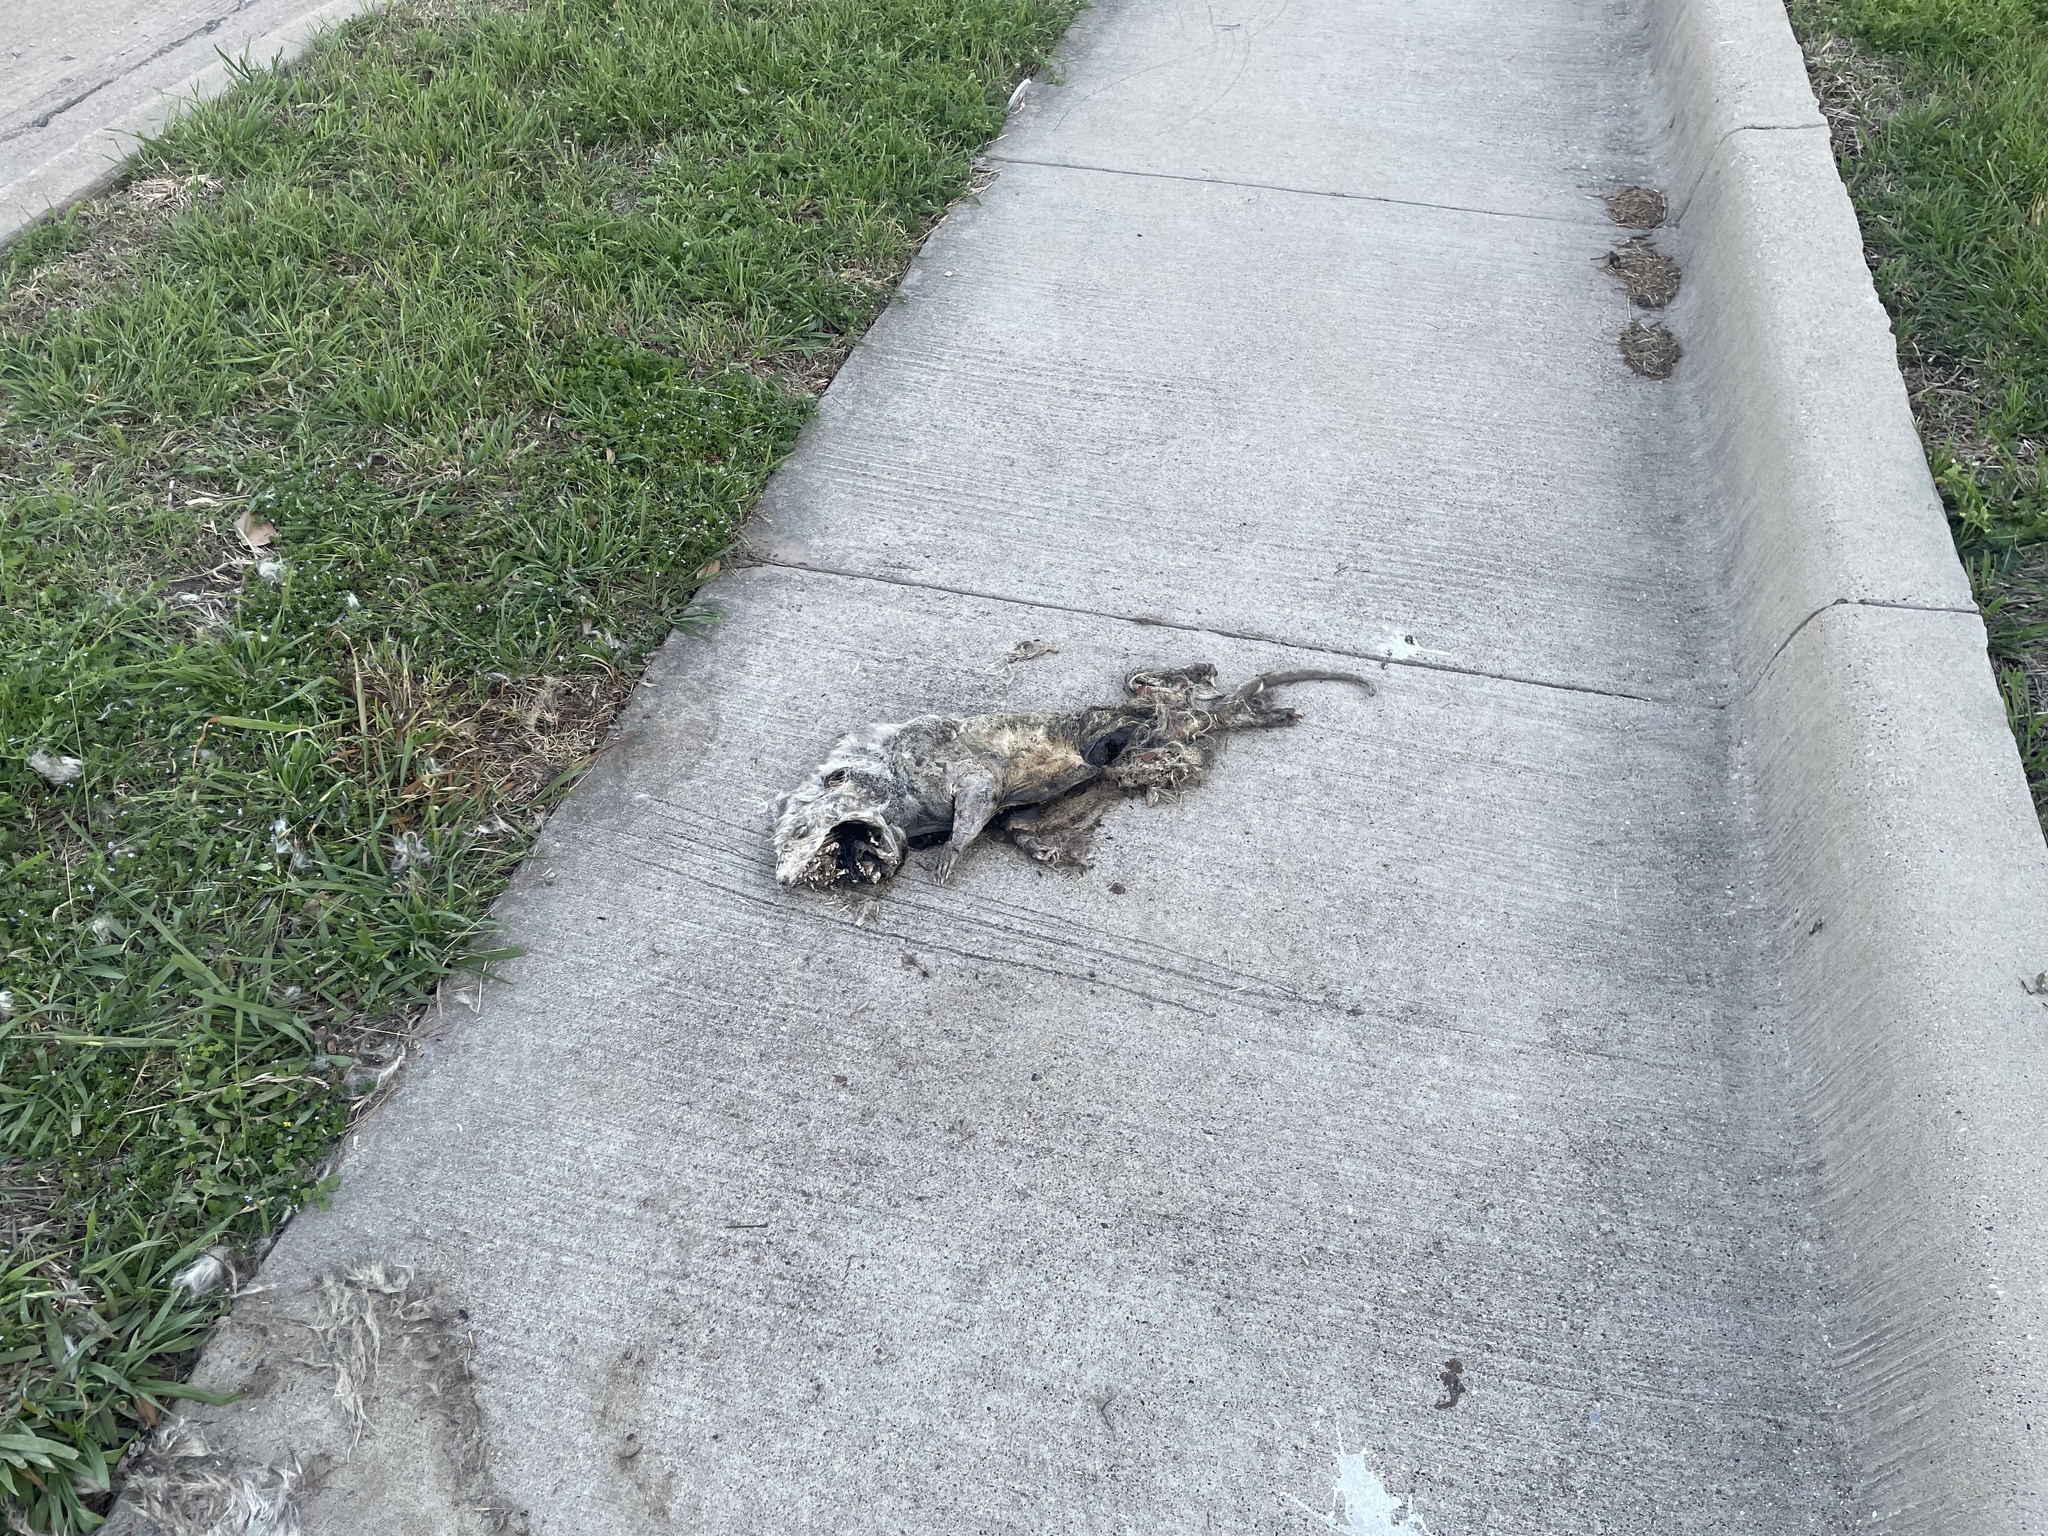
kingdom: Animalia
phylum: Chordata
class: Mammalia
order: Didelphimorphia
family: Didelphidae
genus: Didelphis
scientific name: Didelphis virginiana
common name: Virginia opossum
